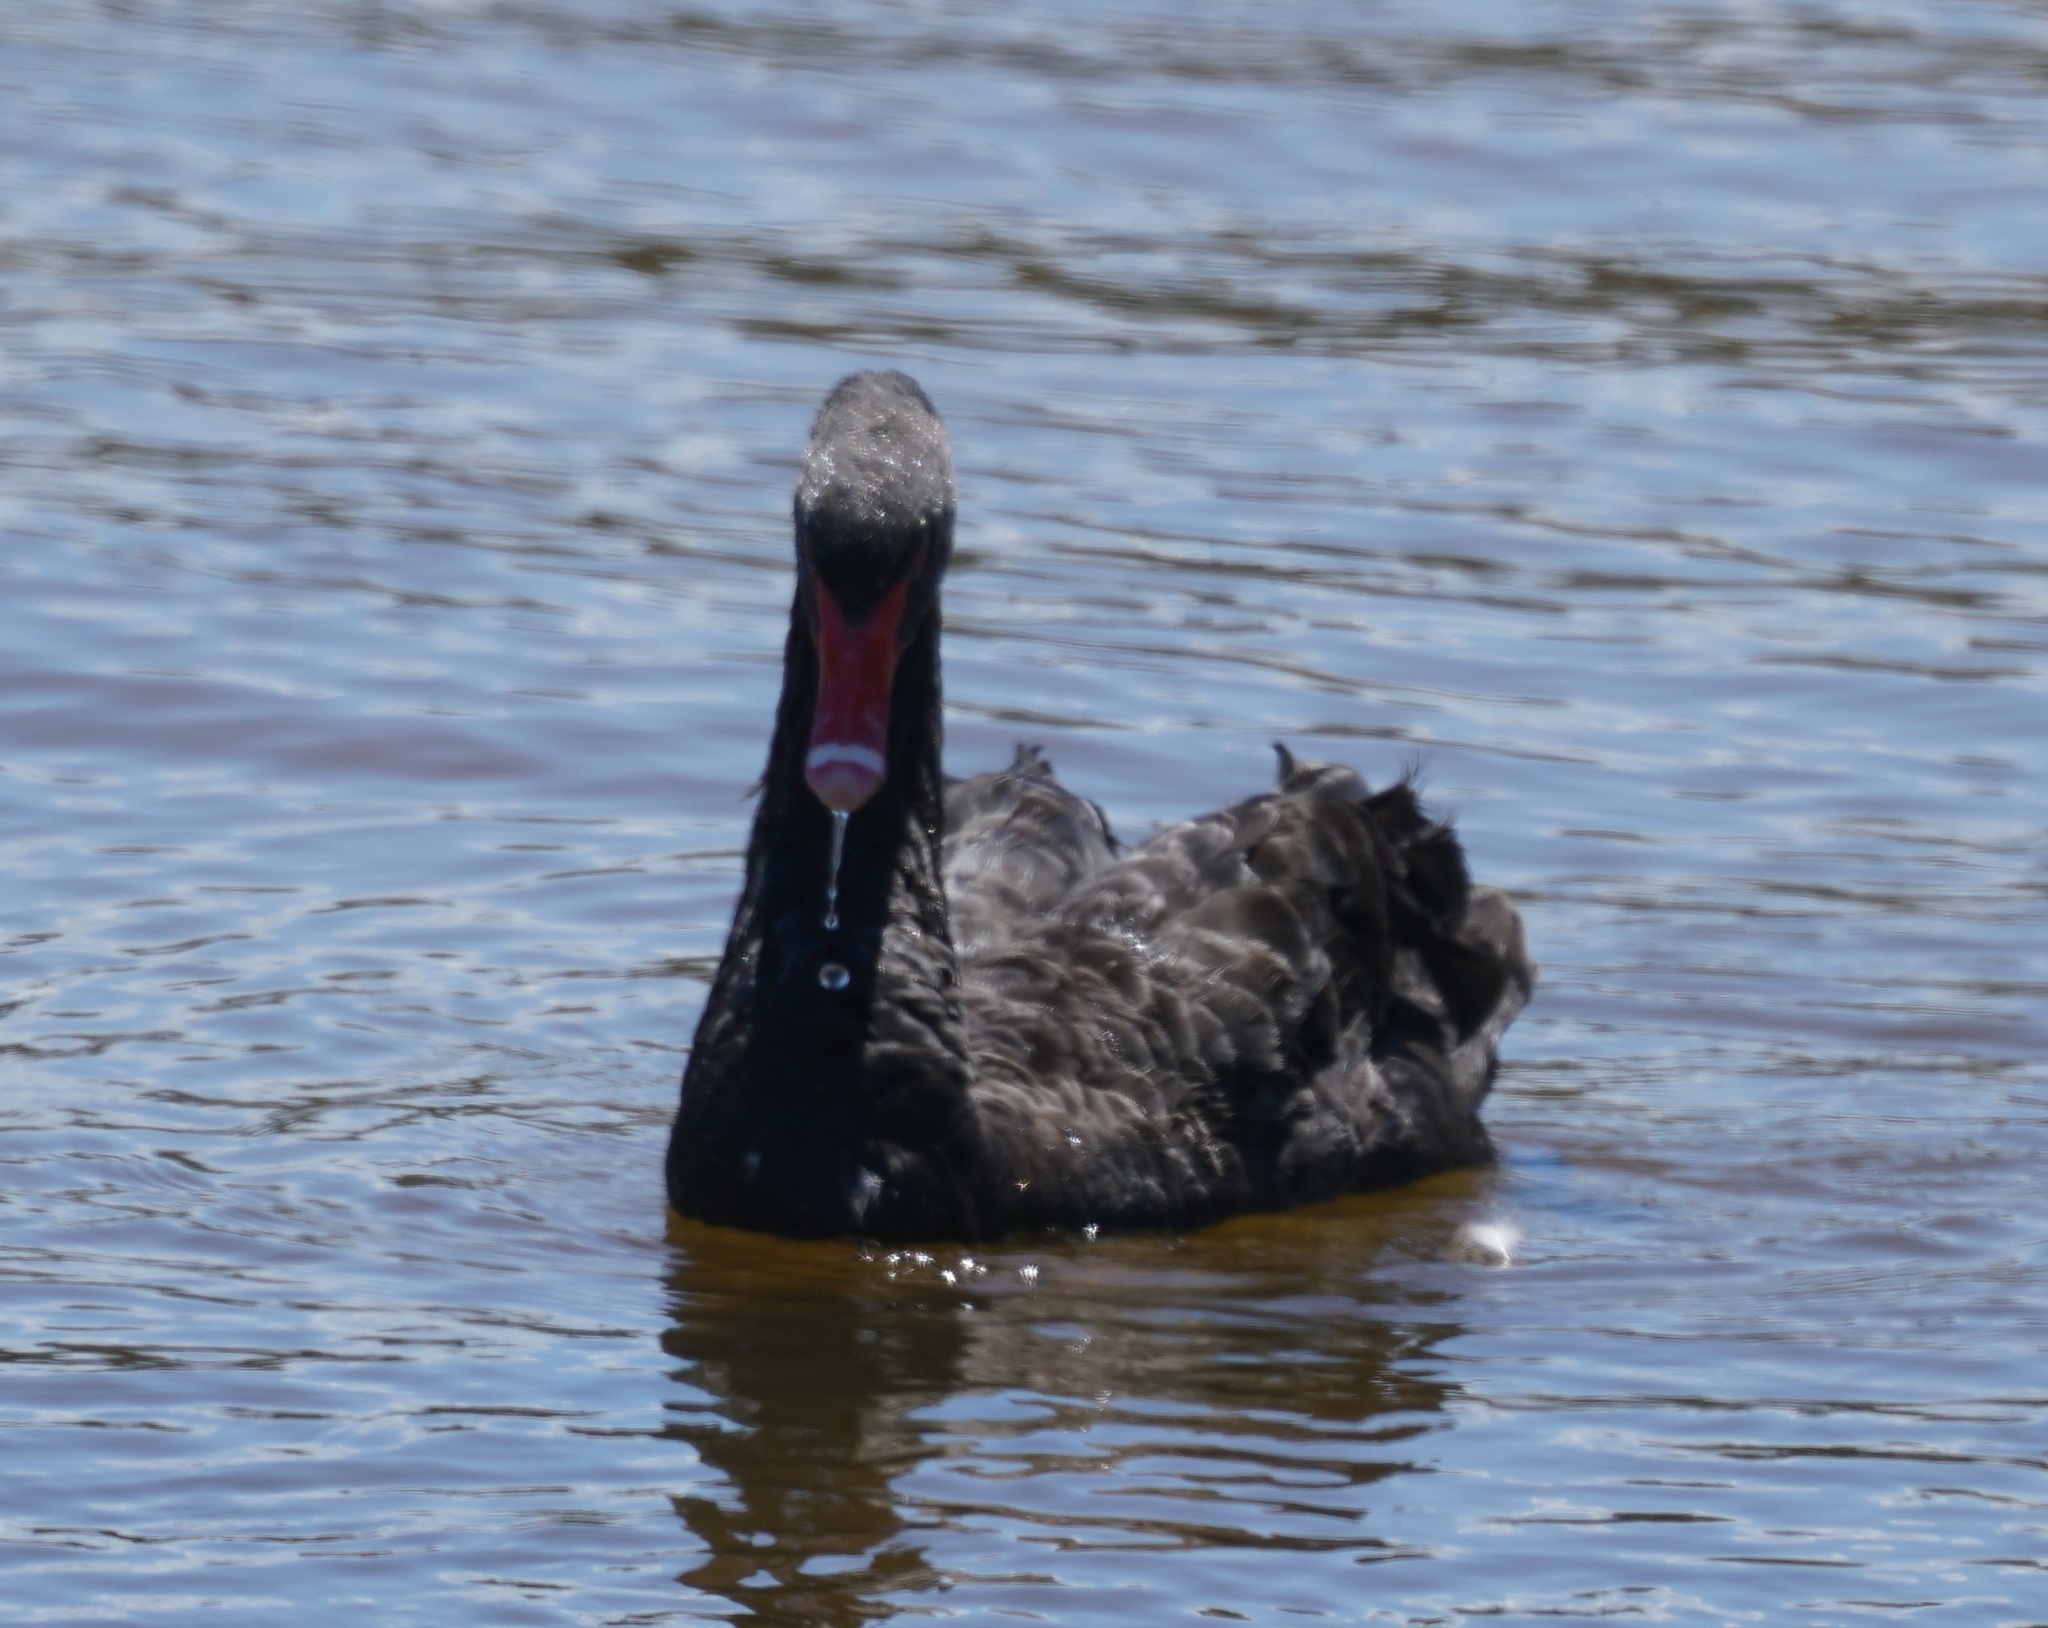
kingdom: Animalia
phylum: Chordata
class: Aves
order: Anseriformes
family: Anatidae
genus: Cygnus
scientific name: Cygnus atratus
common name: Black swan
